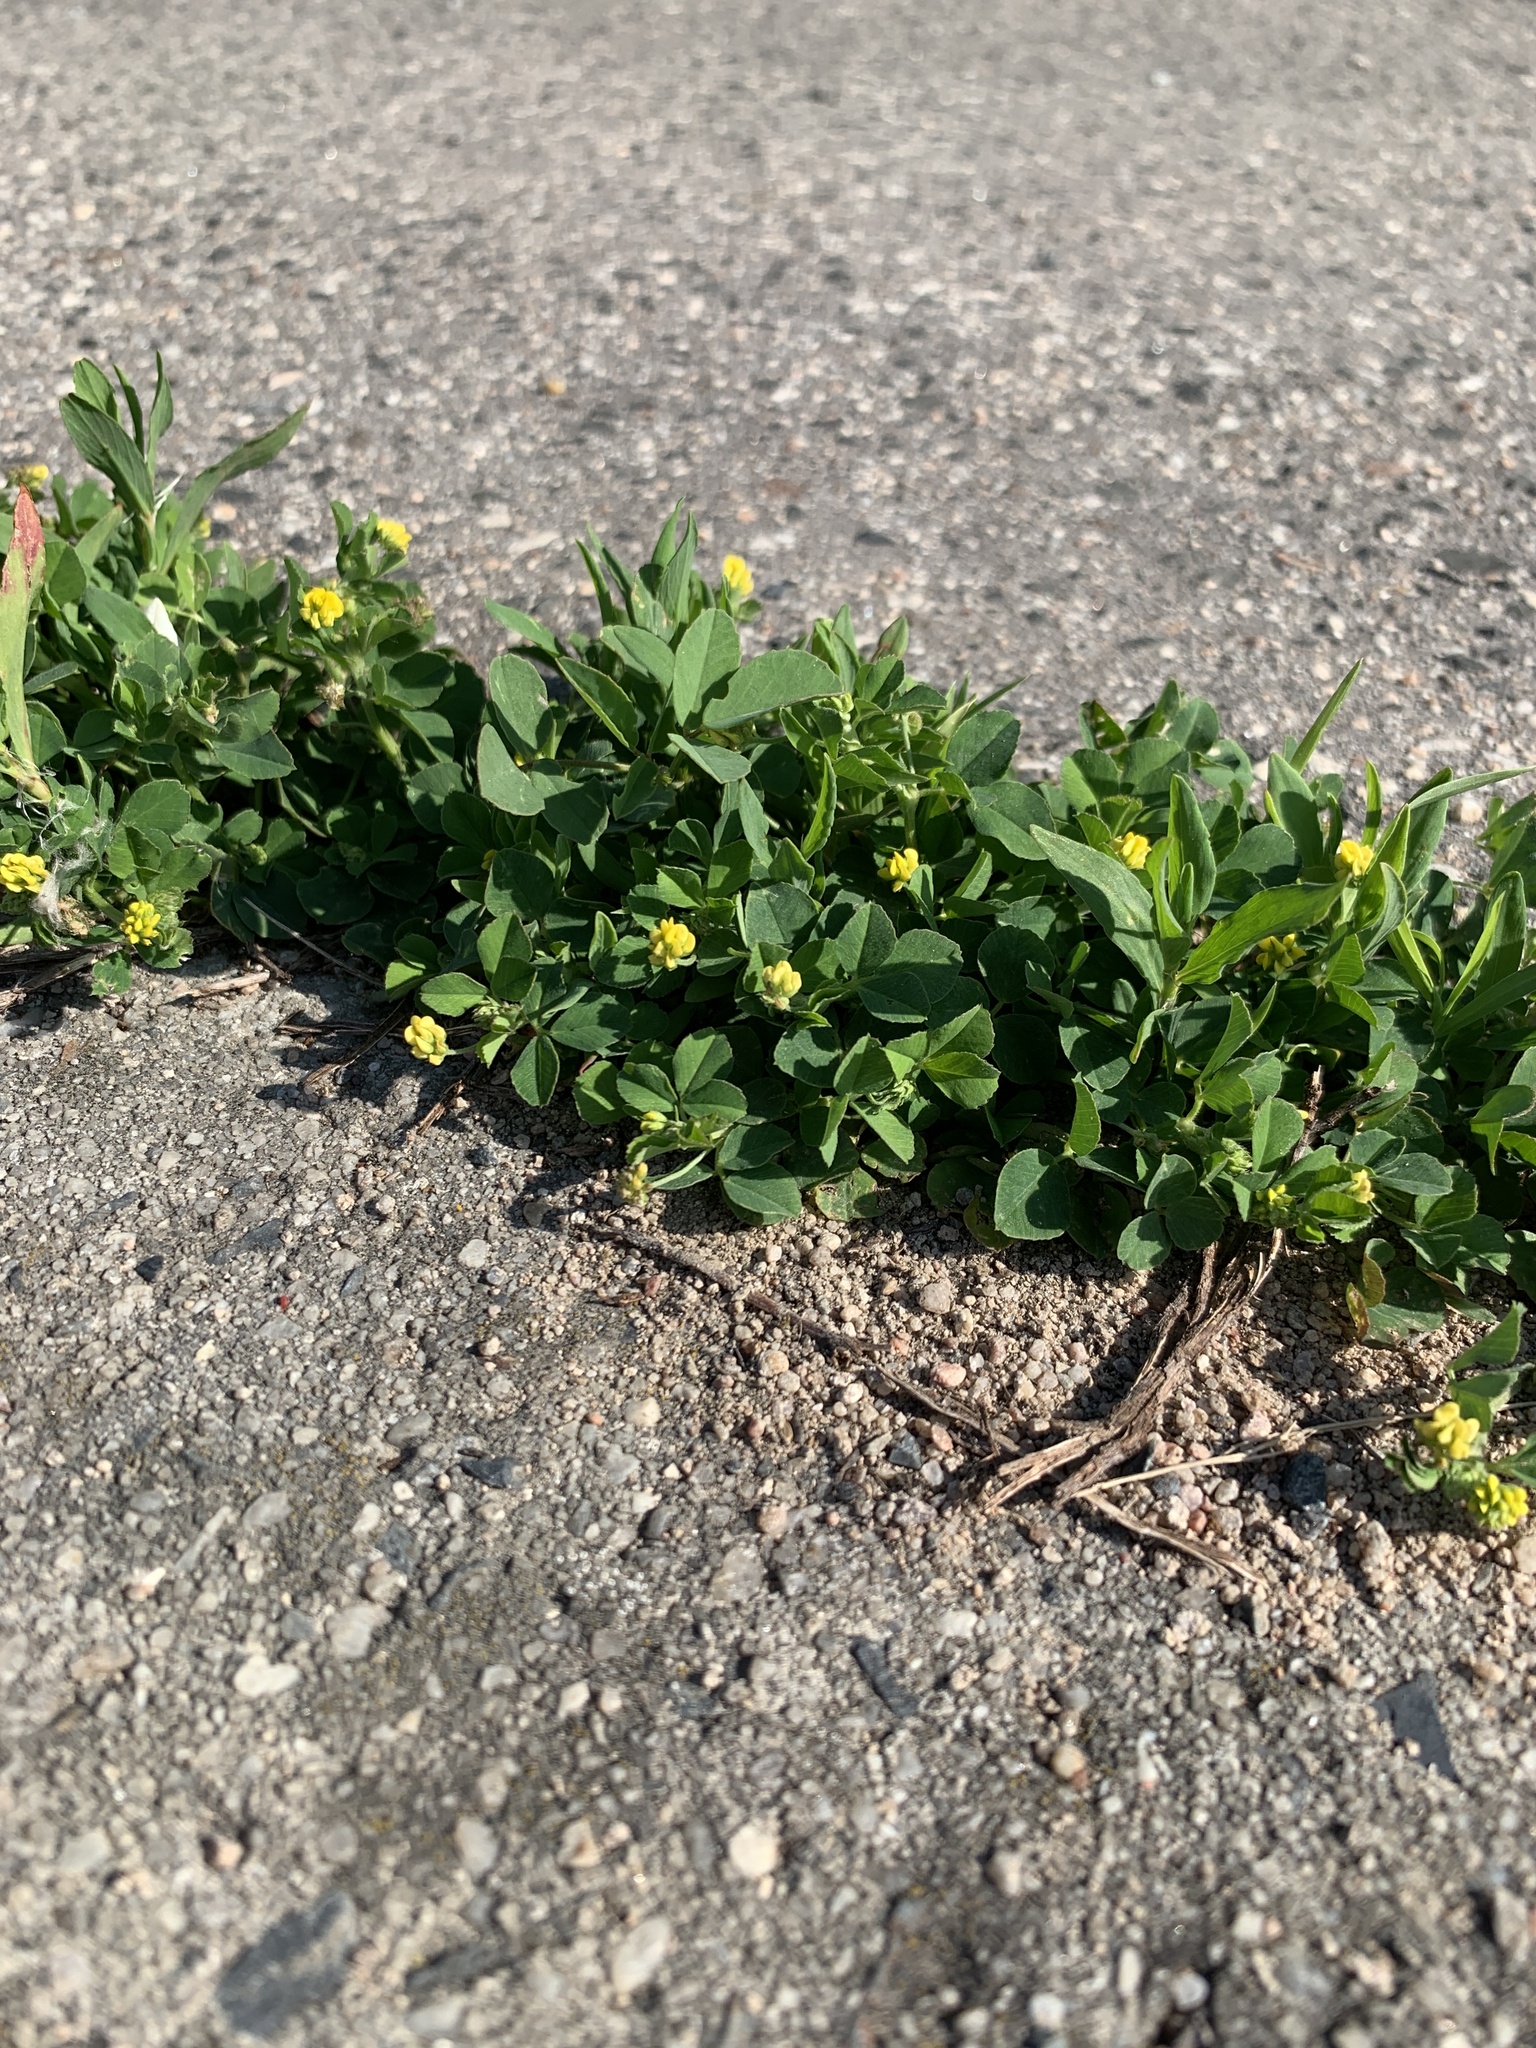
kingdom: Plantae
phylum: Tracheophyta
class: Magnoliopsida
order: Fabales
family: Fabaceae
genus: Medicago
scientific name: Medicago lupulina
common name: Black medick
